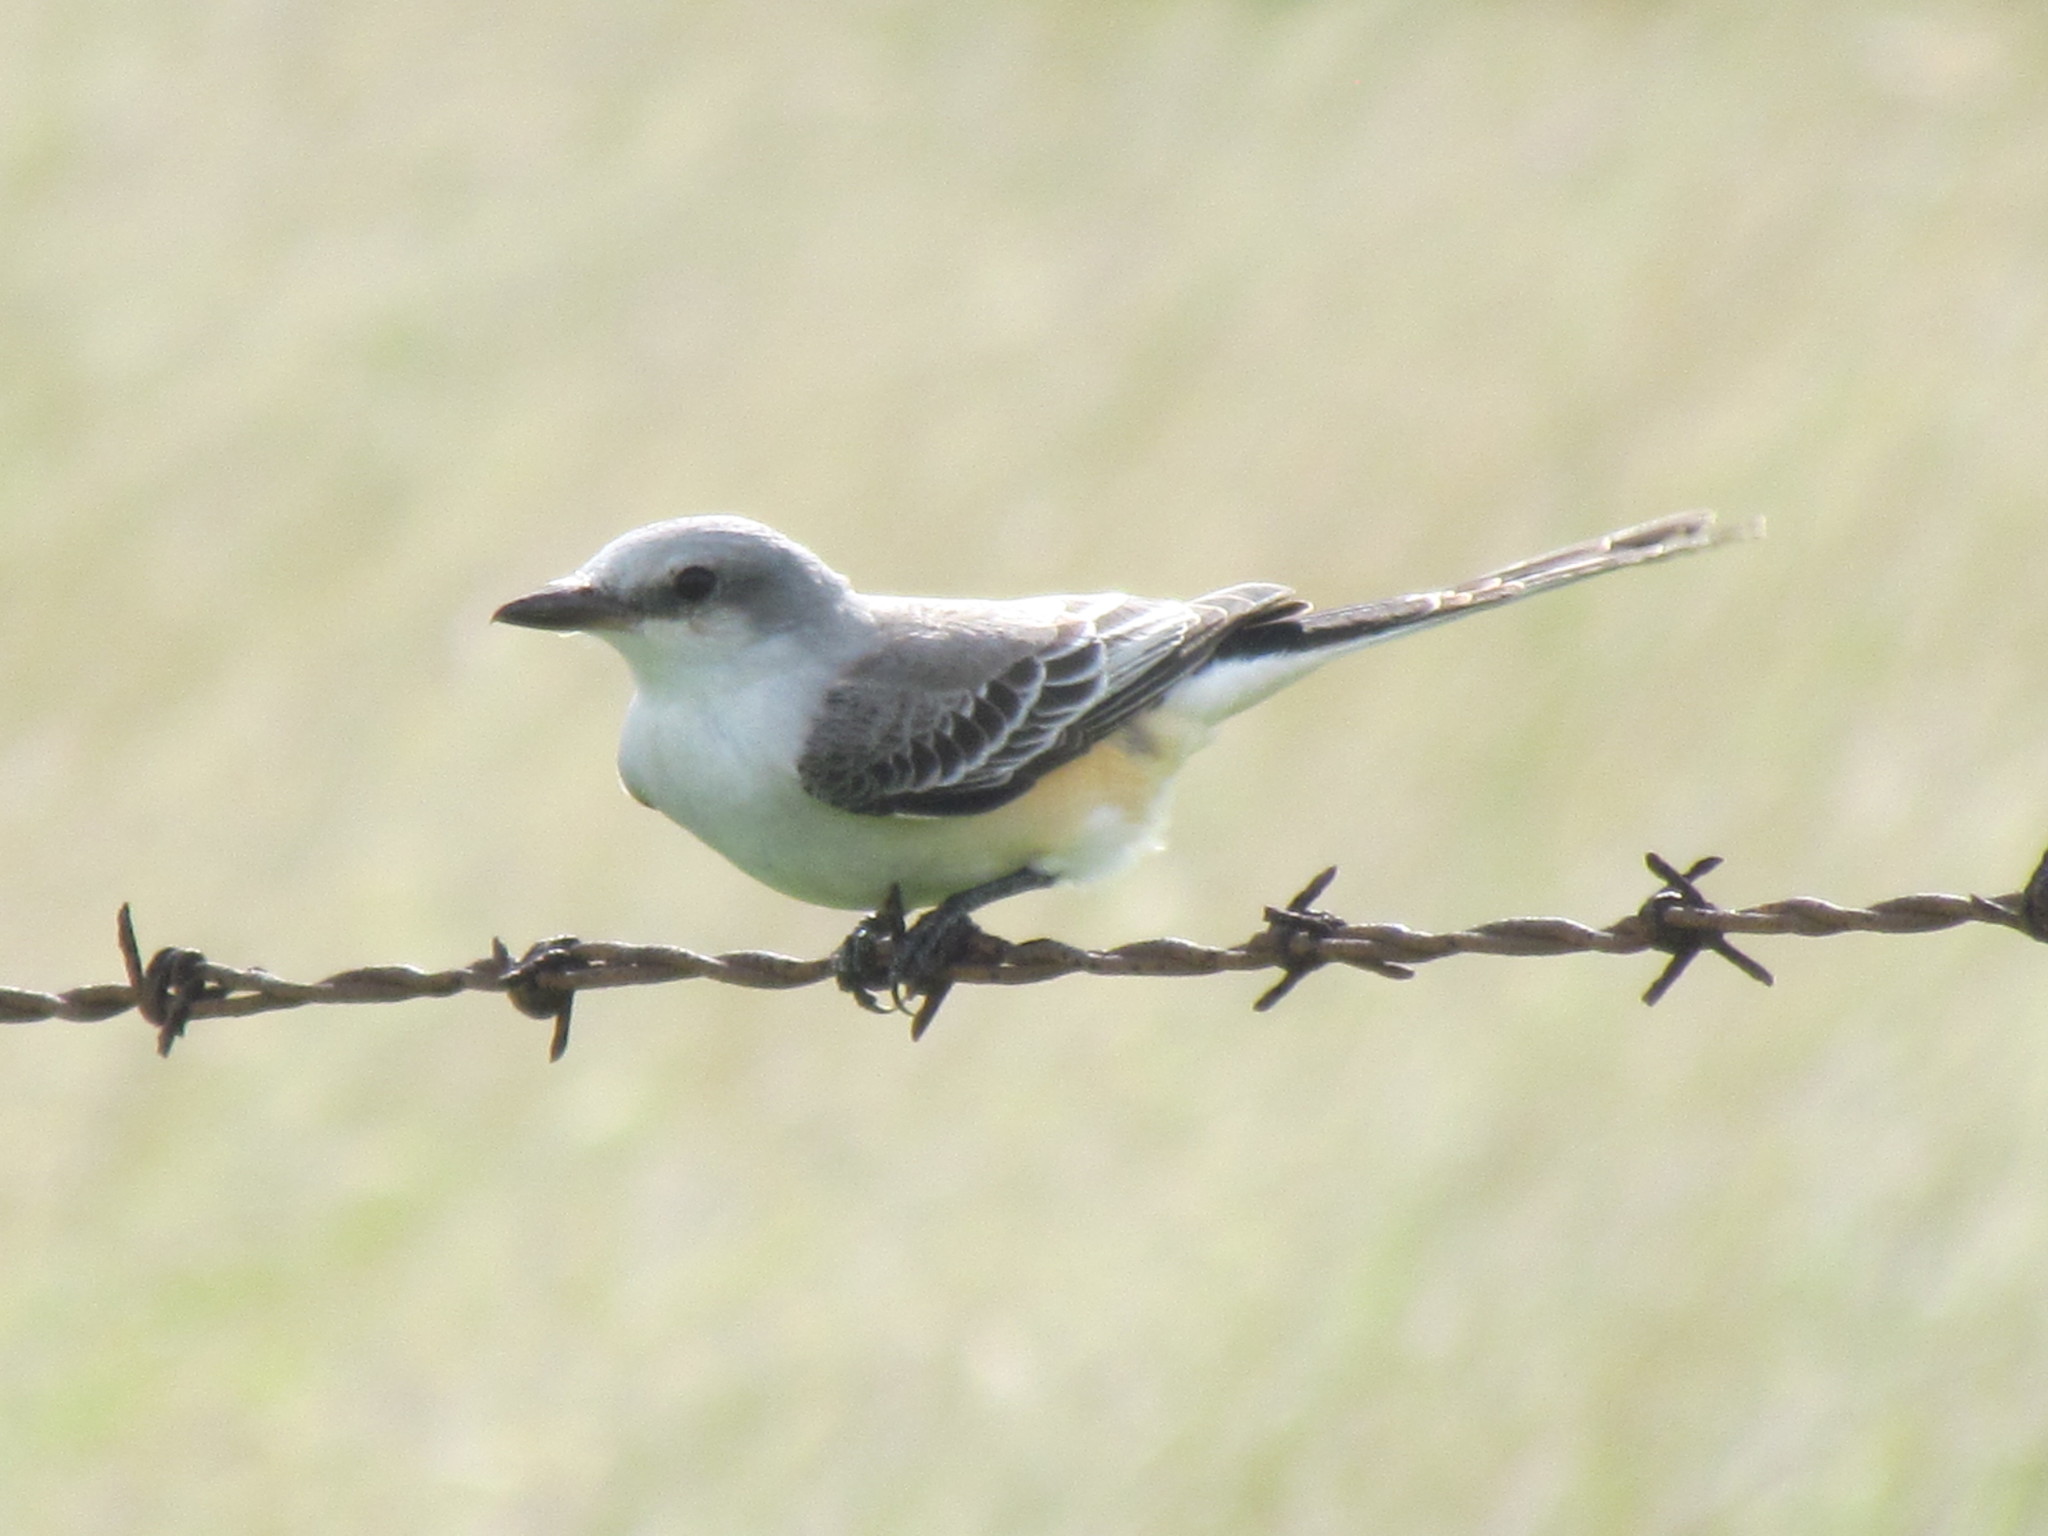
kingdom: Animalia
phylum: Chordata
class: Aves
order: Passeriformes
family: Tyrannidae
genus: Tyrannus
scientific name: Tyrannus forficatus
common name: Scissor-tailed flycatcher
